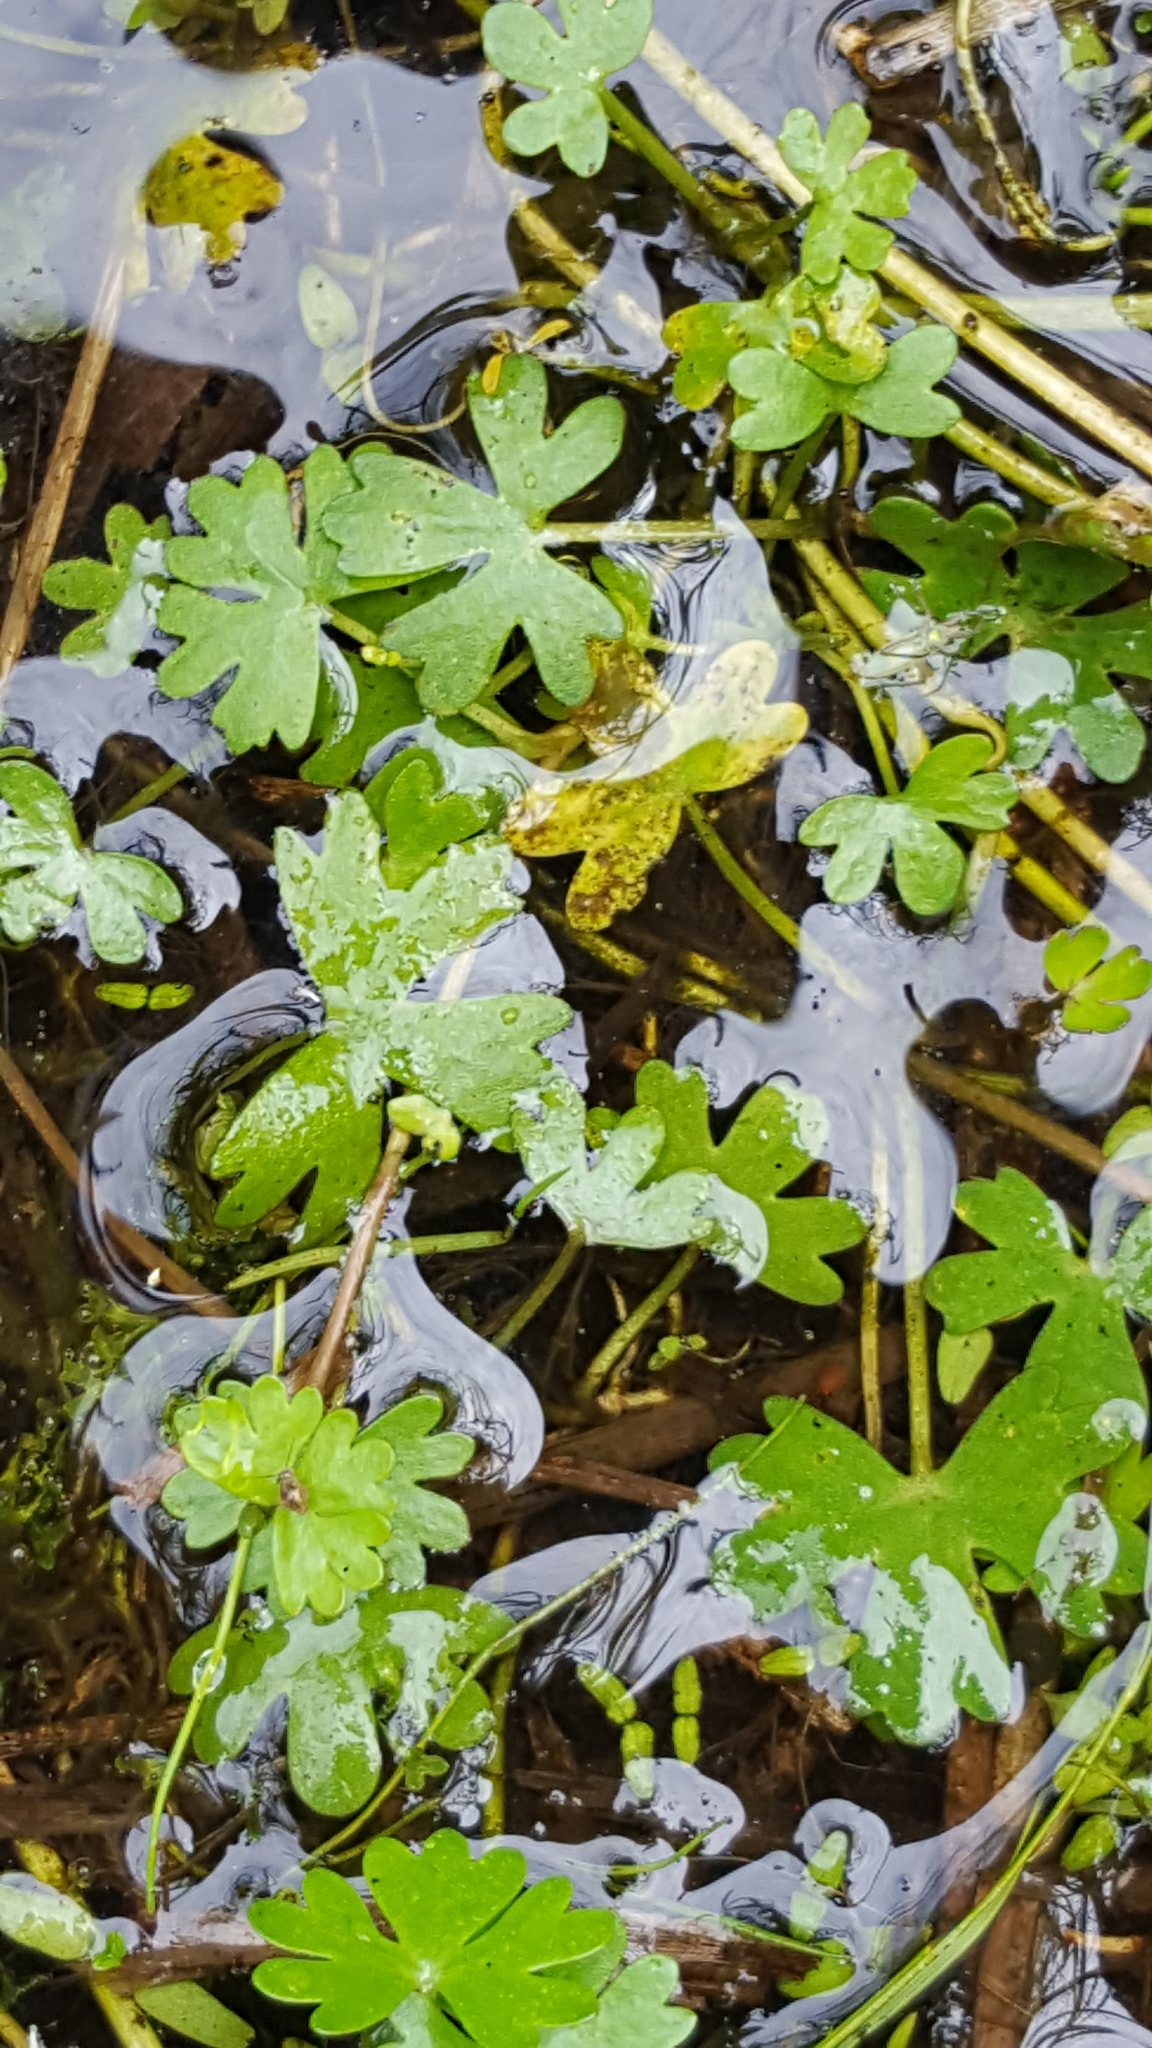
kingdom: Plantae
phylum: Tracheophyta
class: Magnoliopsida
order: Ranunculales
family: Ranunculaceae
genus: Ranunculus
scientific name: Ranunculus gmelinii
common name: Gmelin's buttercup
